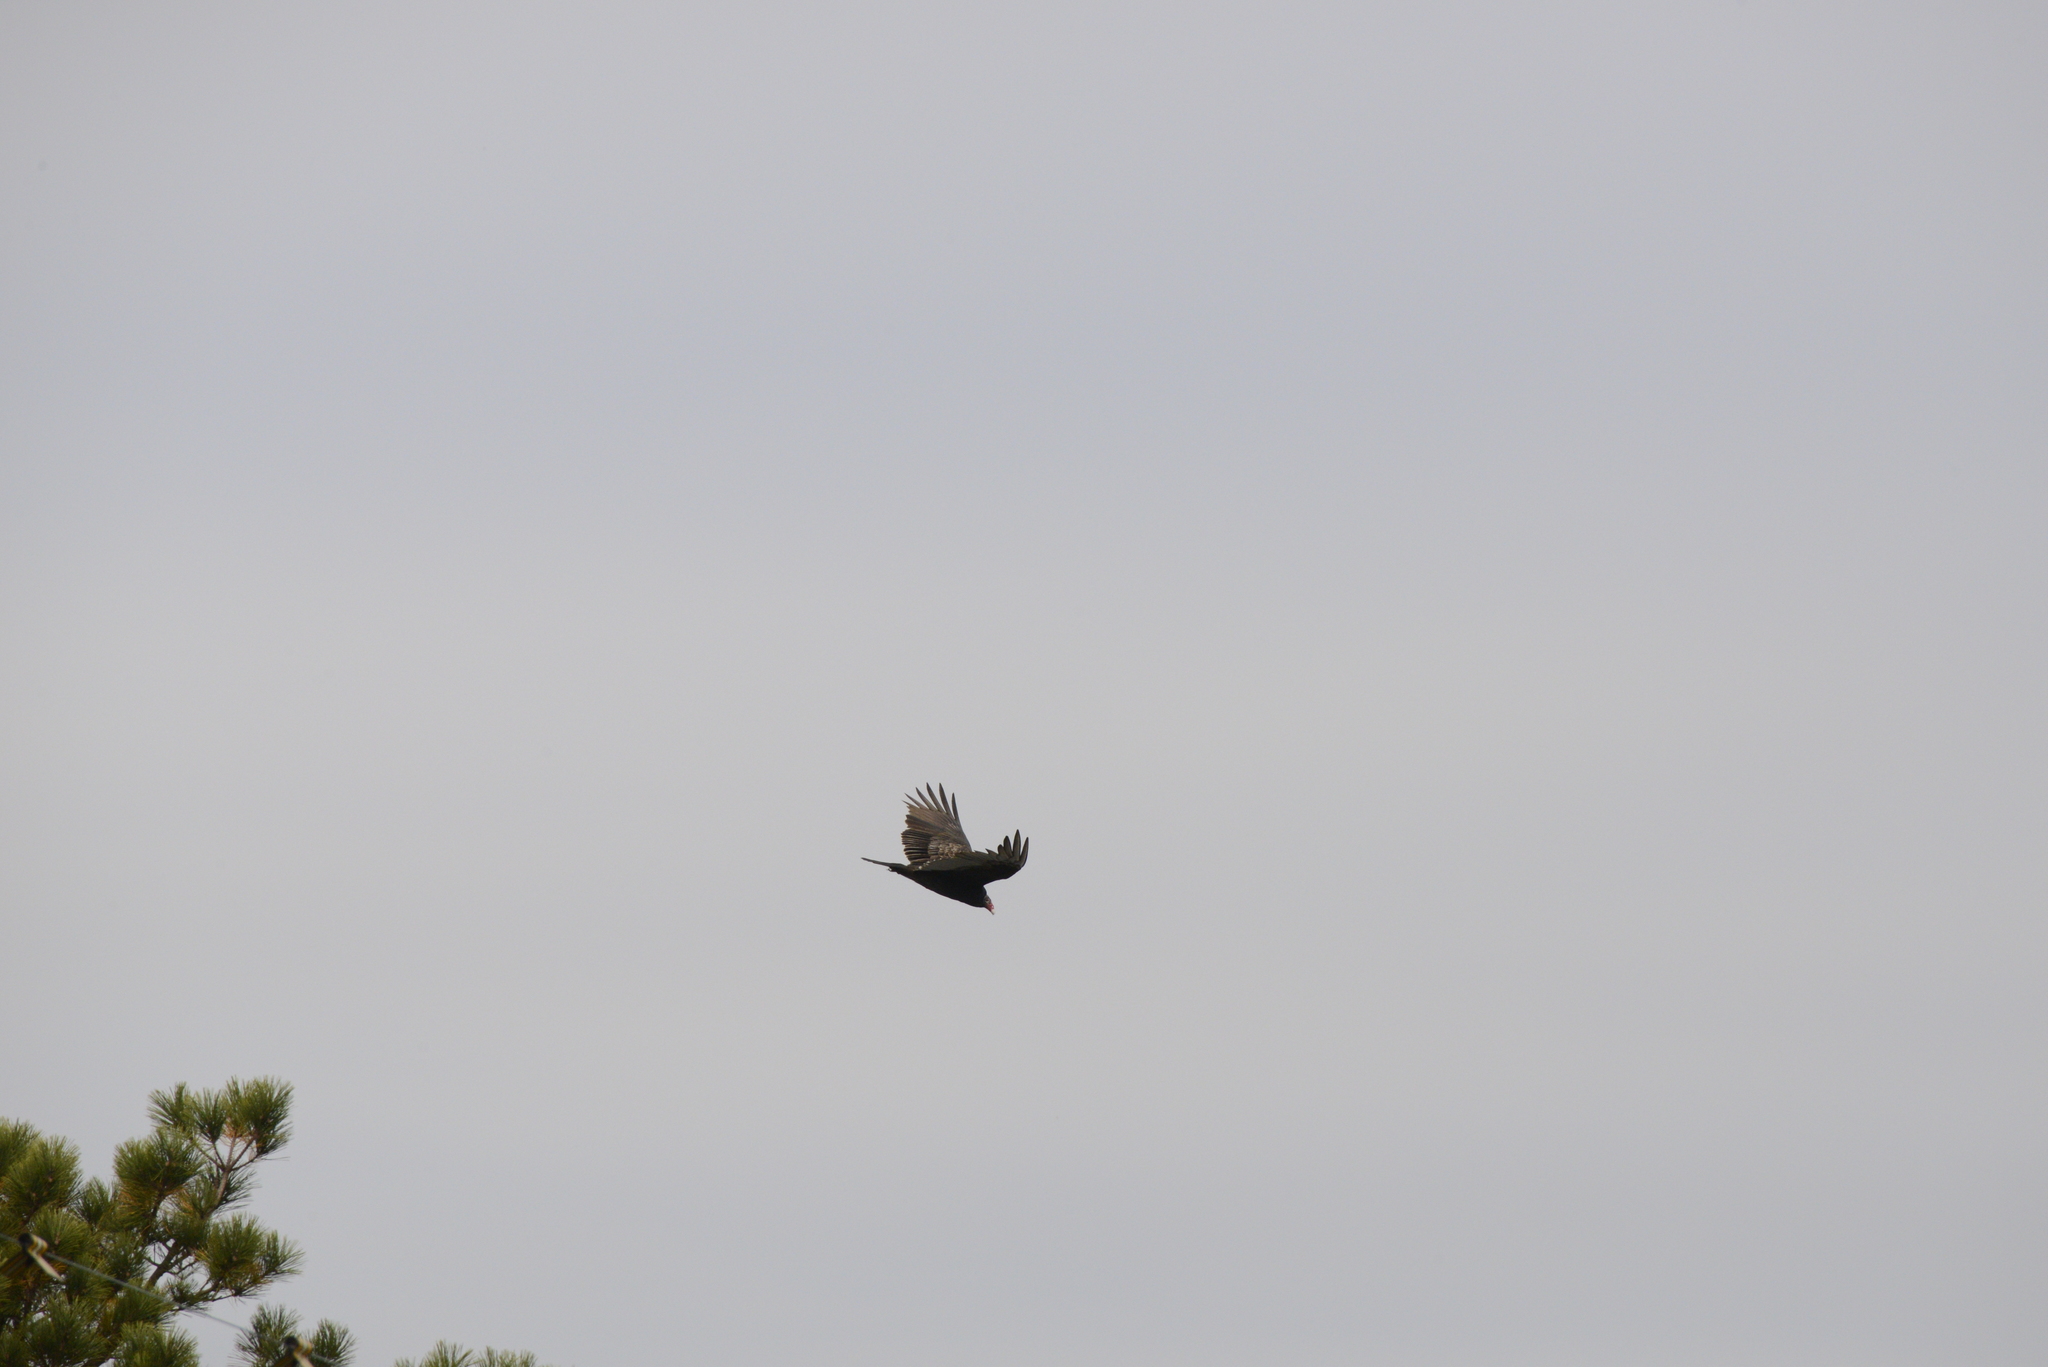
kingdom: Animalia
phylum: Chordata
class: Aves
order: Accipitriformes
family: Cathartidae
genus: Cathartes
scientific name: Cathartes aura
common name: Turkey vulture
